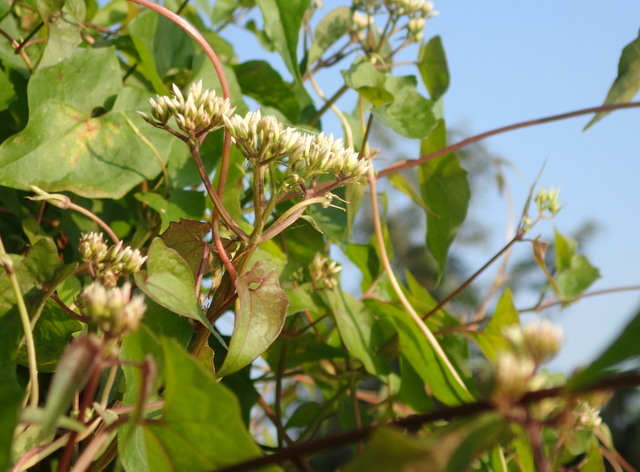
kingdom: Plantae
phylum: Tracheophyta
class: Magnoliopsida
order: Asterales
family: Asteraceae
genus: Mikania
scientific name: Mikania scandens
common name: Climbing hempvine
